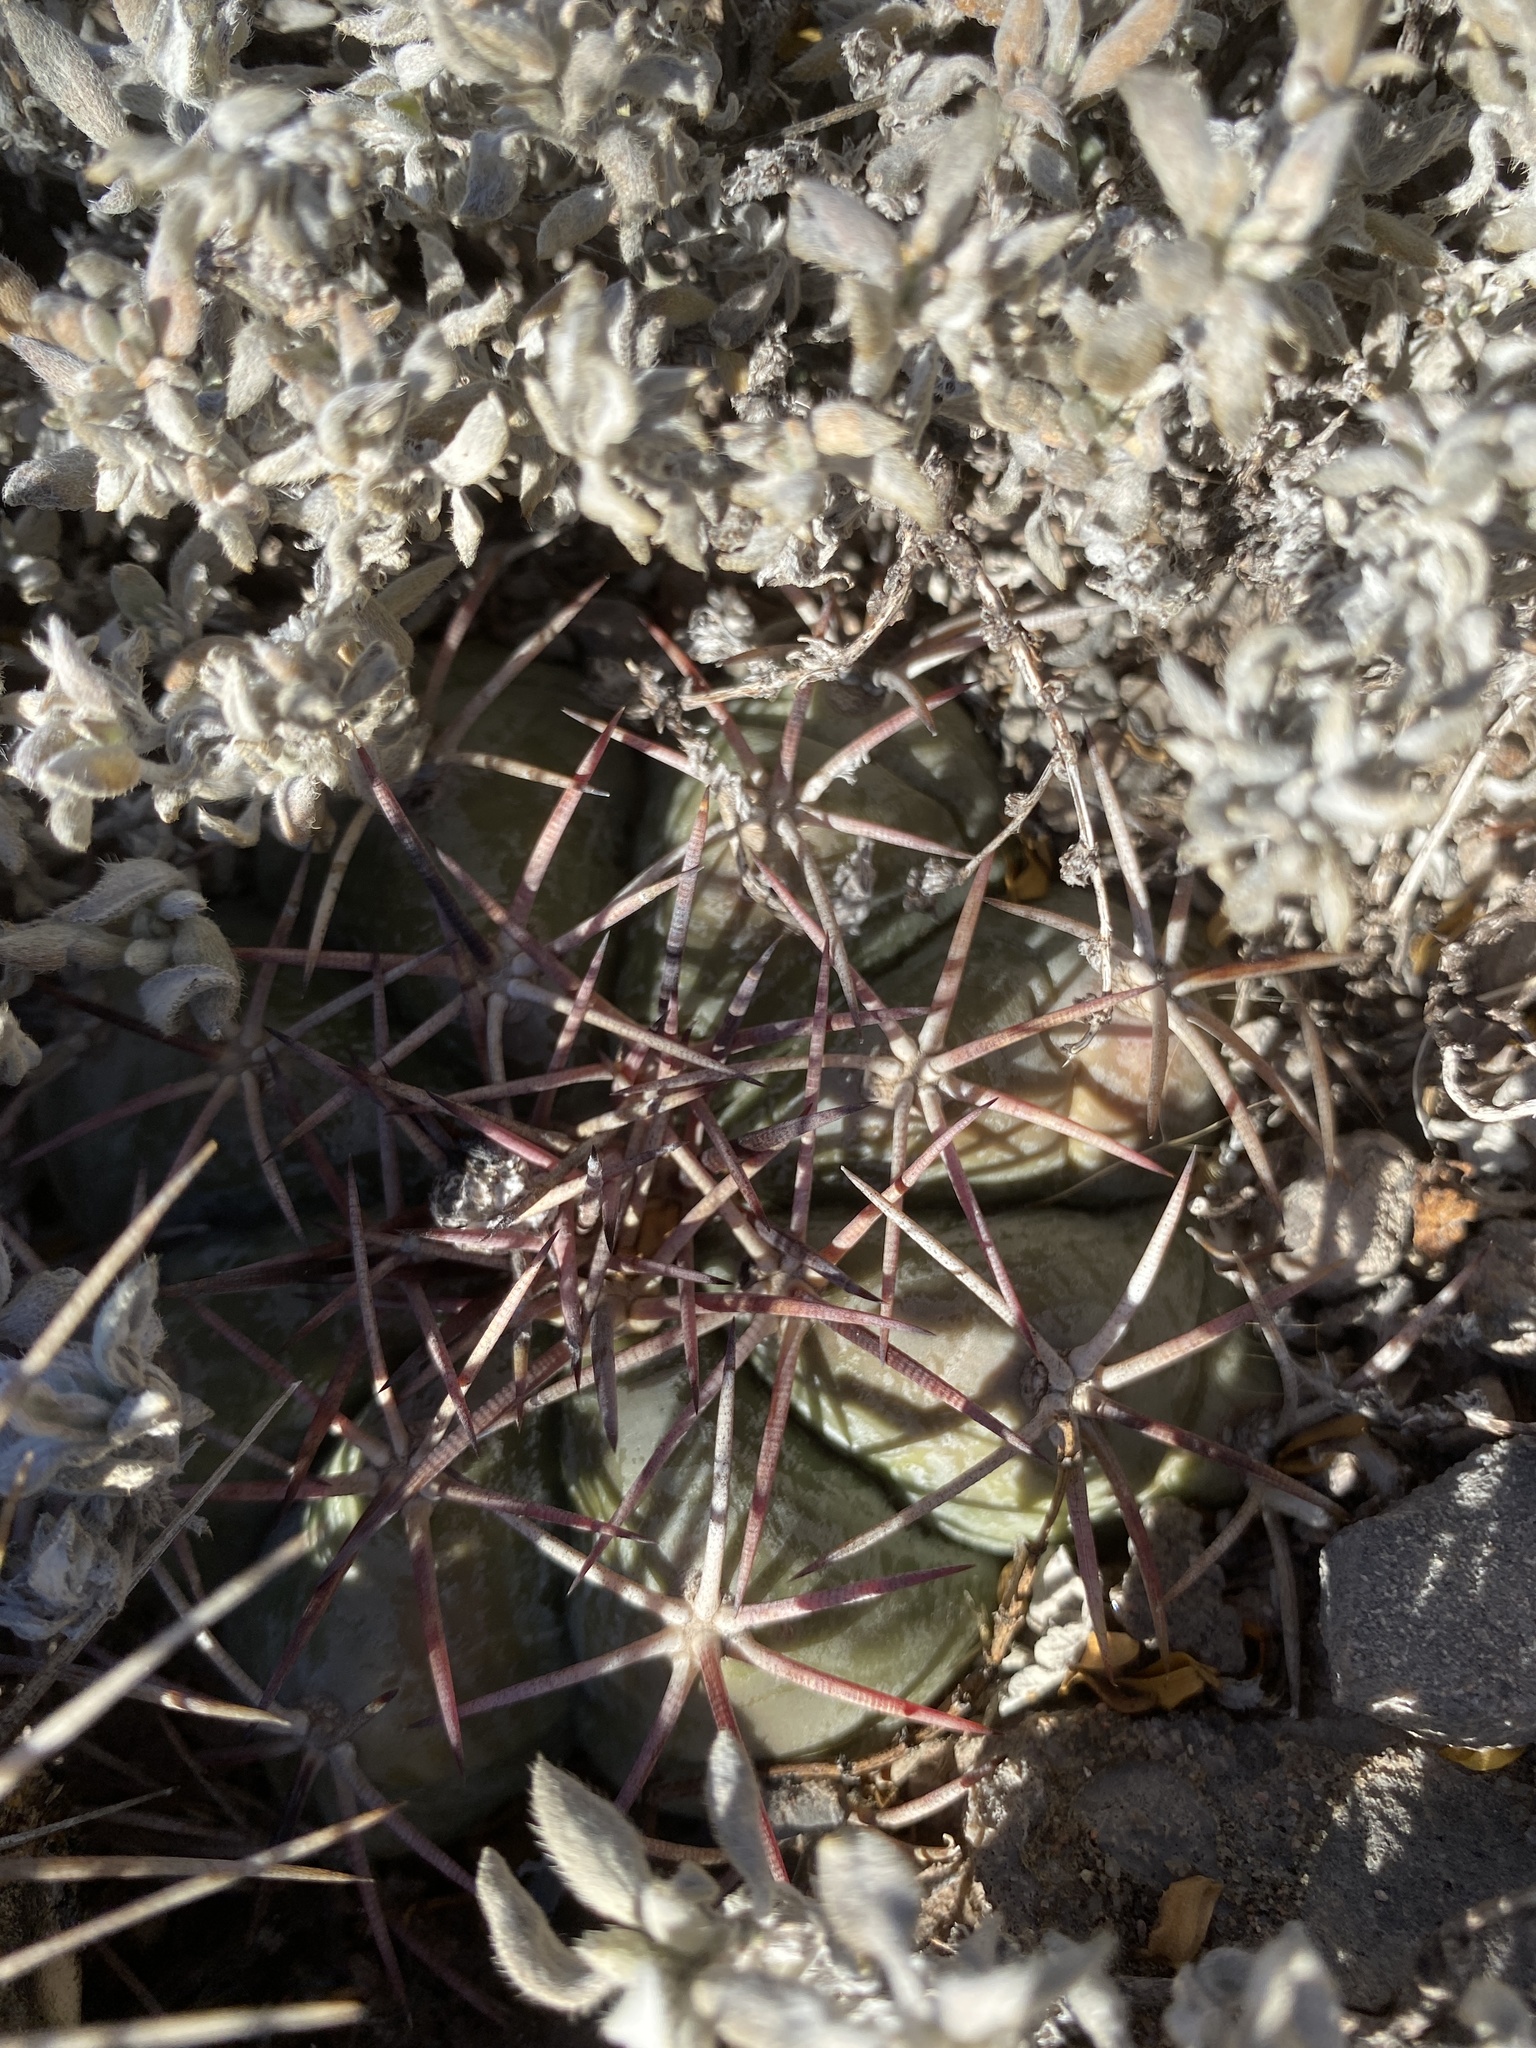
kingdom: Plantae
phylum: Tracheophyta
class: Magnoliopsida
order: Caryophyllales
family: Cactaceae
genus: Echinocactus
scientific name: Echinocactus horizonthalonius
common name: Devilshead
